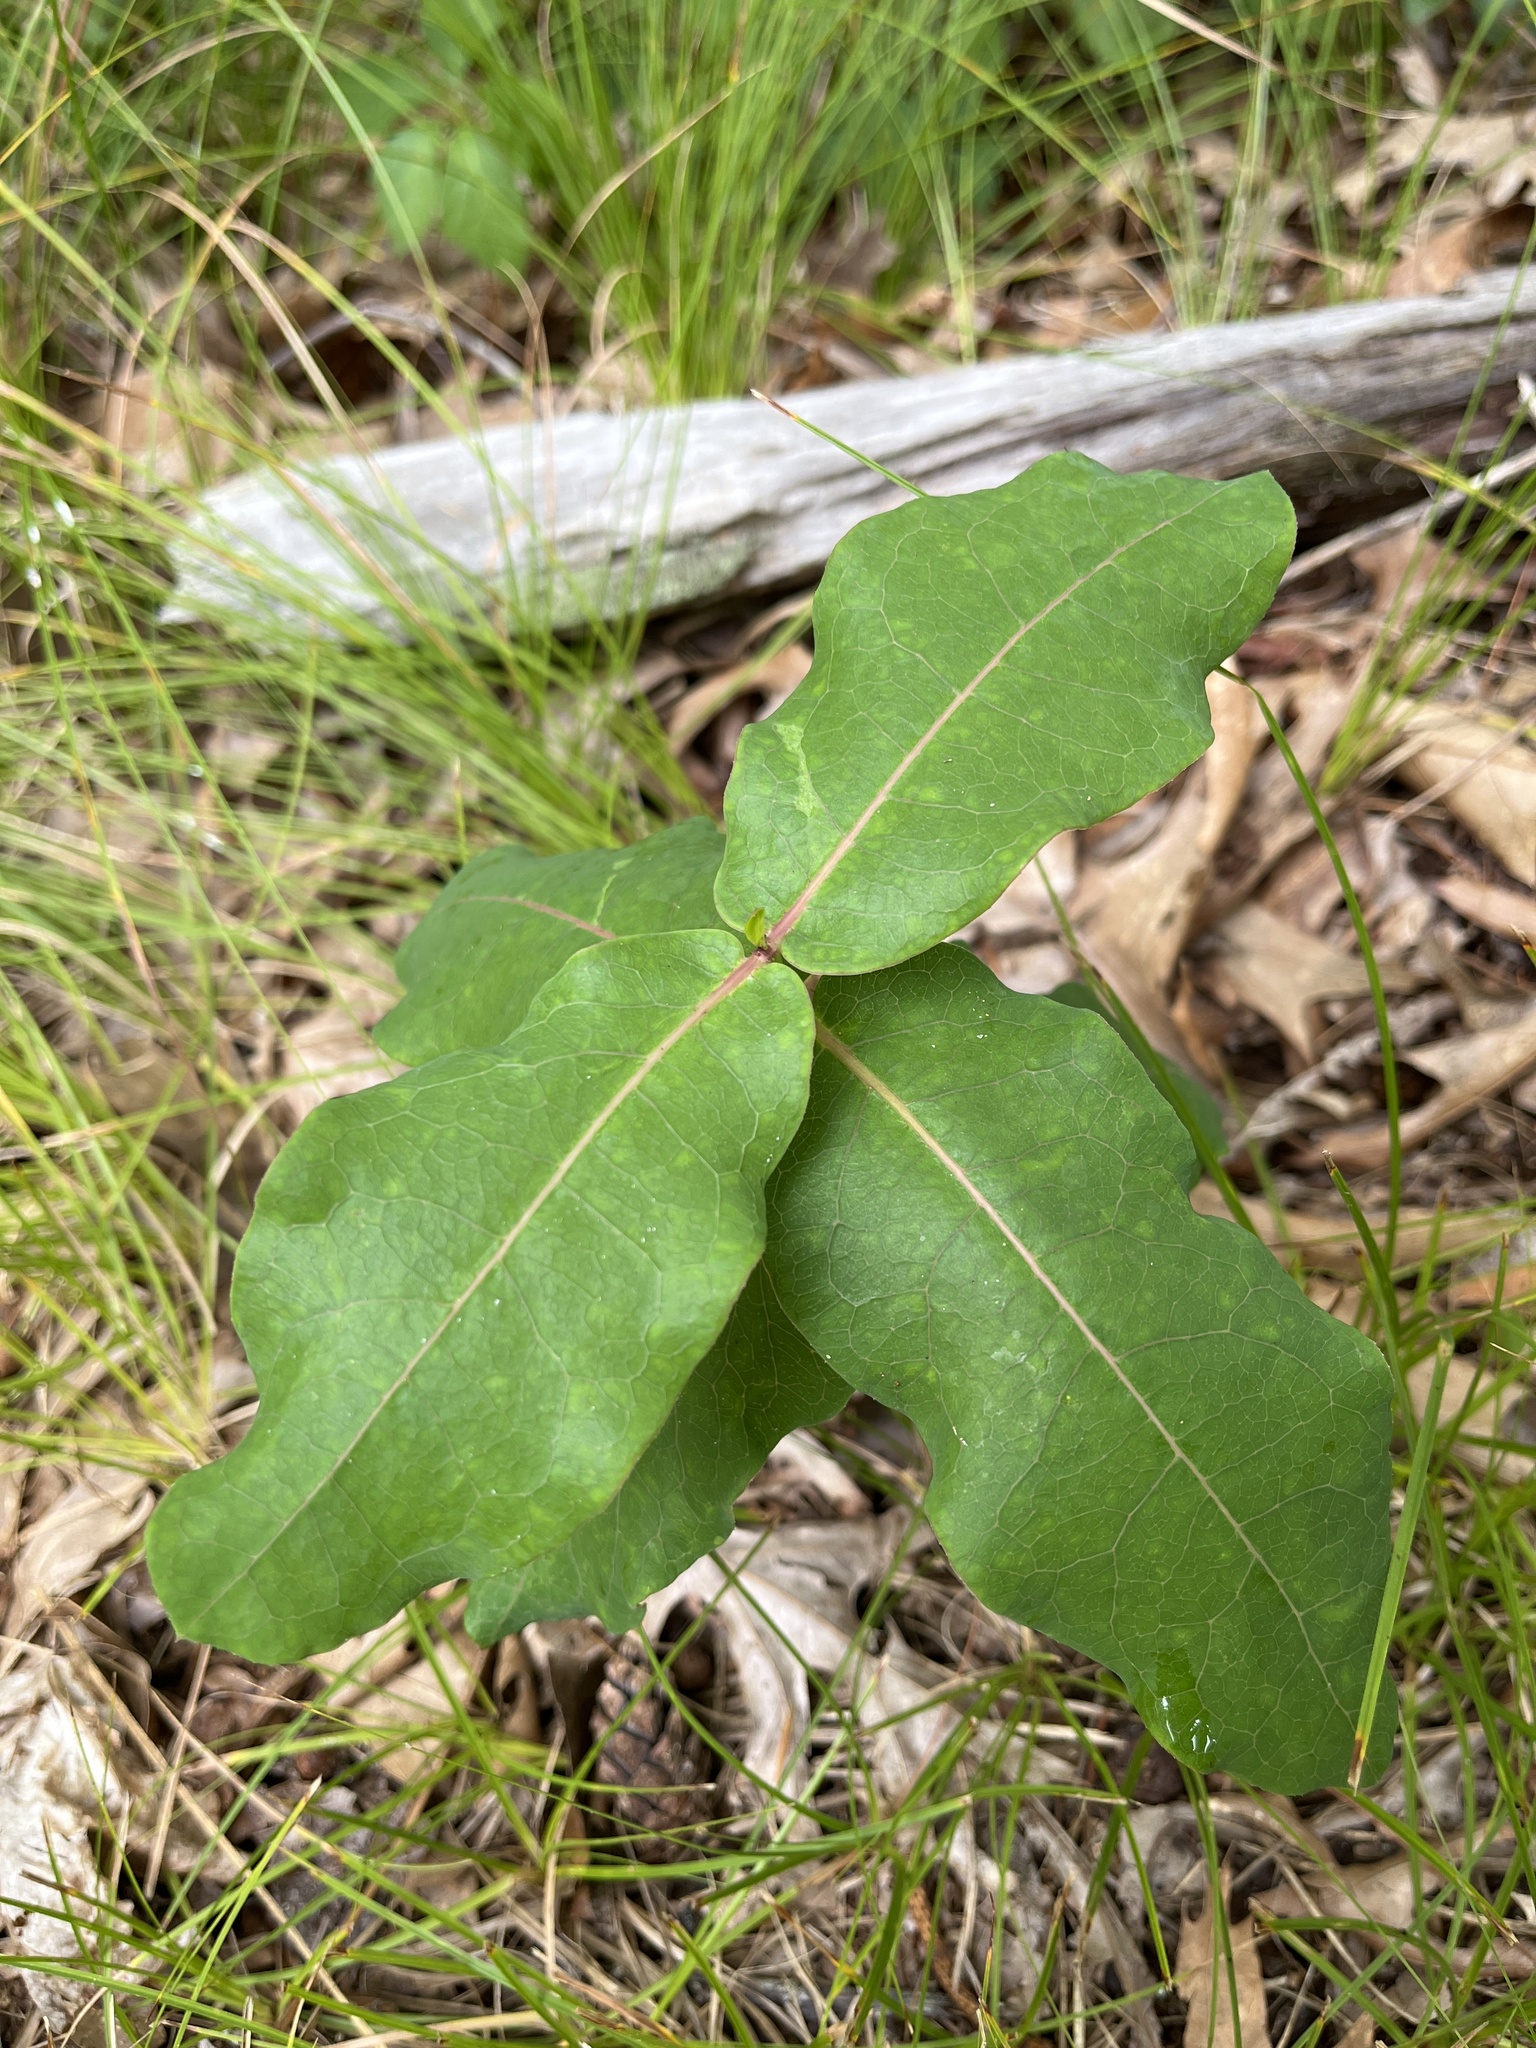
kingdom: Plantae
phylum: Tracheophyta
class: Magnoliopsida
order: Gentianales
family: Apocynaceae
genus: Asclepias
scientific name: Asclepias amplexicaulis
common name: Blunt-leaf milkweed
